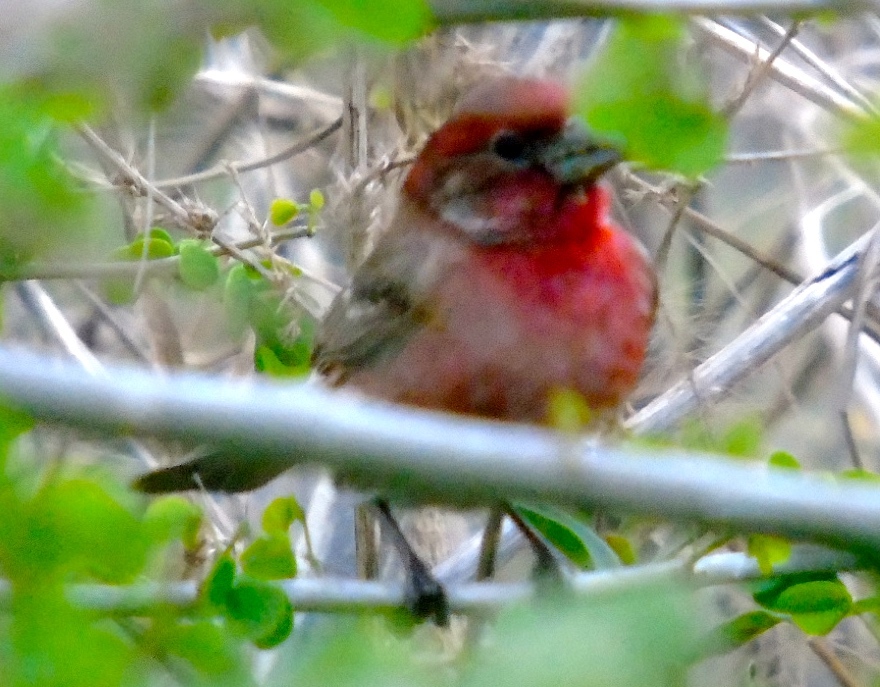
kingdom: Animalia
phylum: Chordata
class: Aves
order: Passeriformes
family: Fringillidae
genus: Haemorhous
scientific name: Haemorhous mexicanus
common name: House finch
